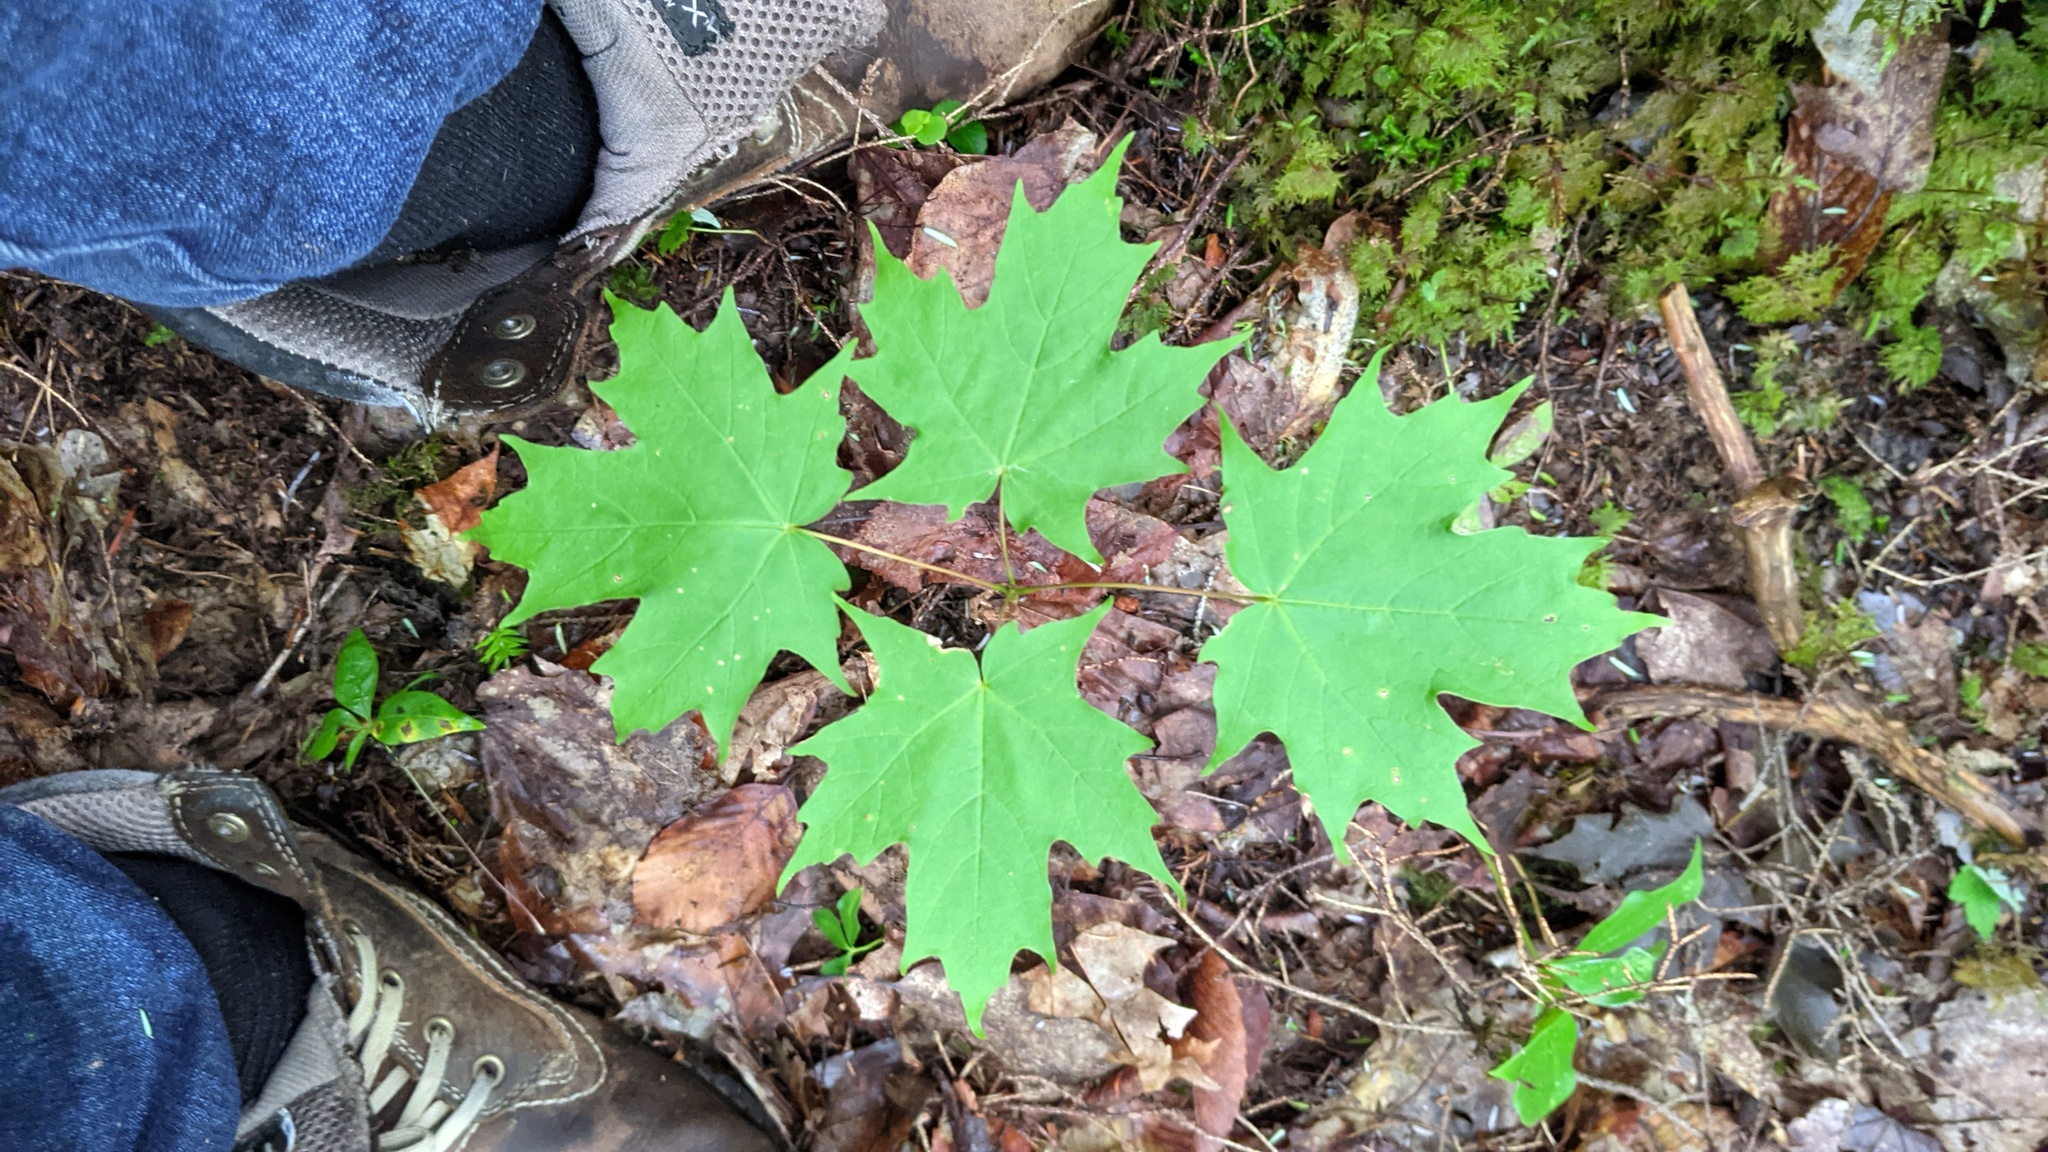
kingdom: Plantae
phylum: Tracheophyta
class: Magnoliopsida
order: Sapindales
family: Sapindaceae
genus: Acer
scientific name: Acer saccharum
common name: Sugar maple
